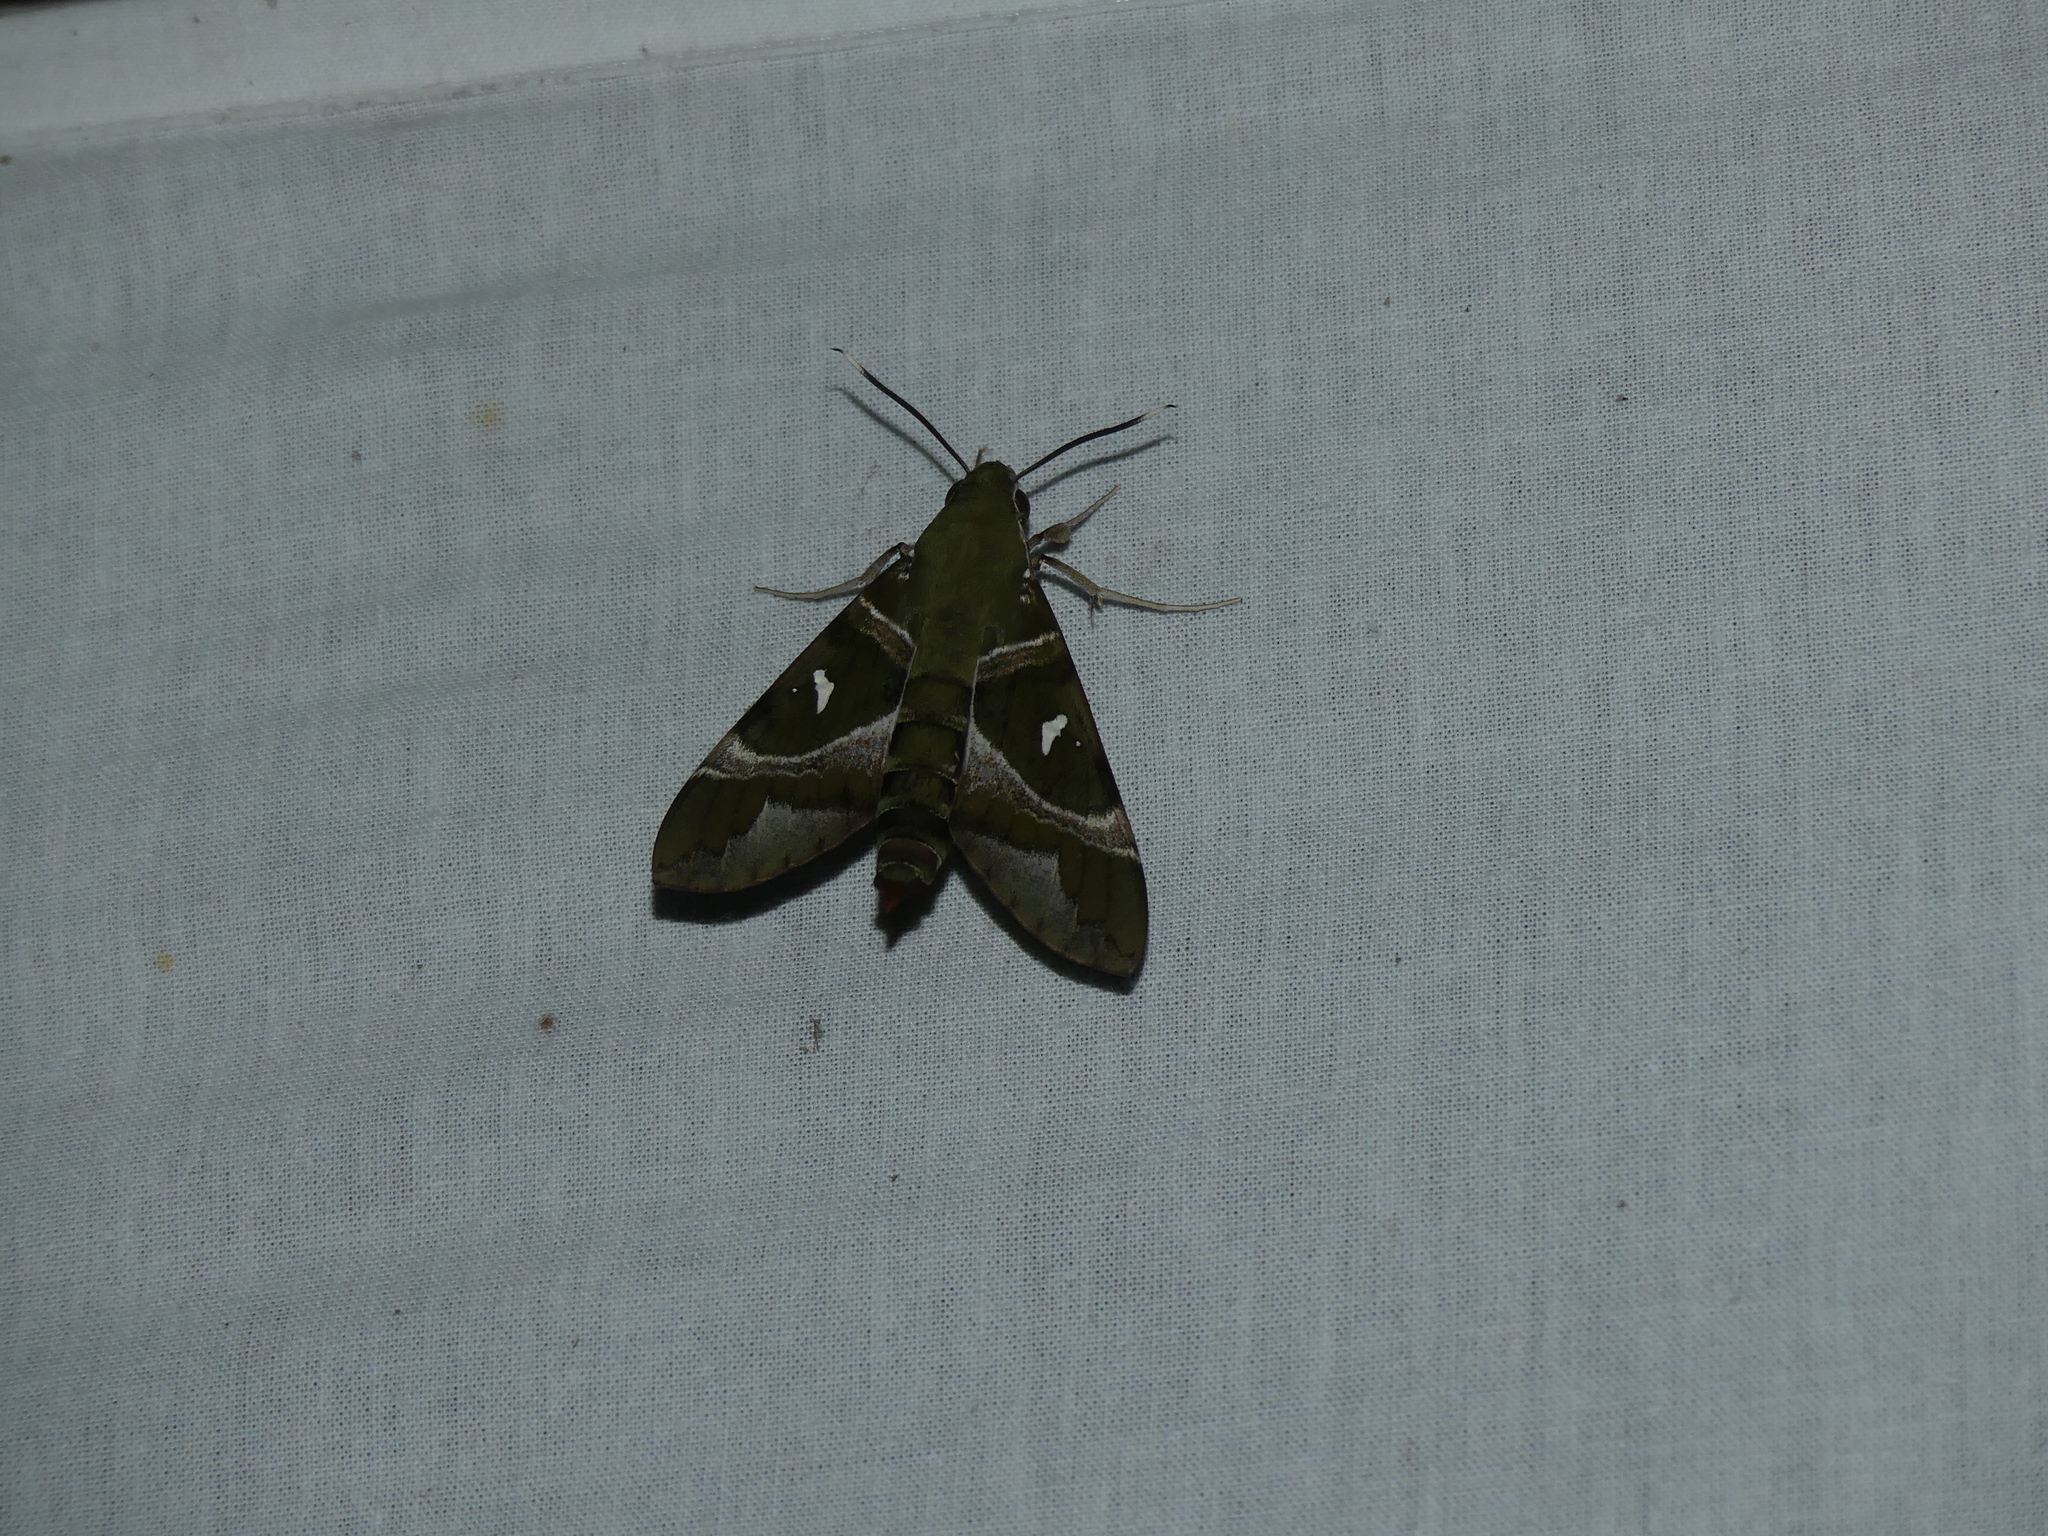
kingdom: Animalia
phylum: Arthropoda
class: Insecta
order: Lepidoptera
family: Sphingidae
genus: Nephele
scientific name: Nephele argentifera
